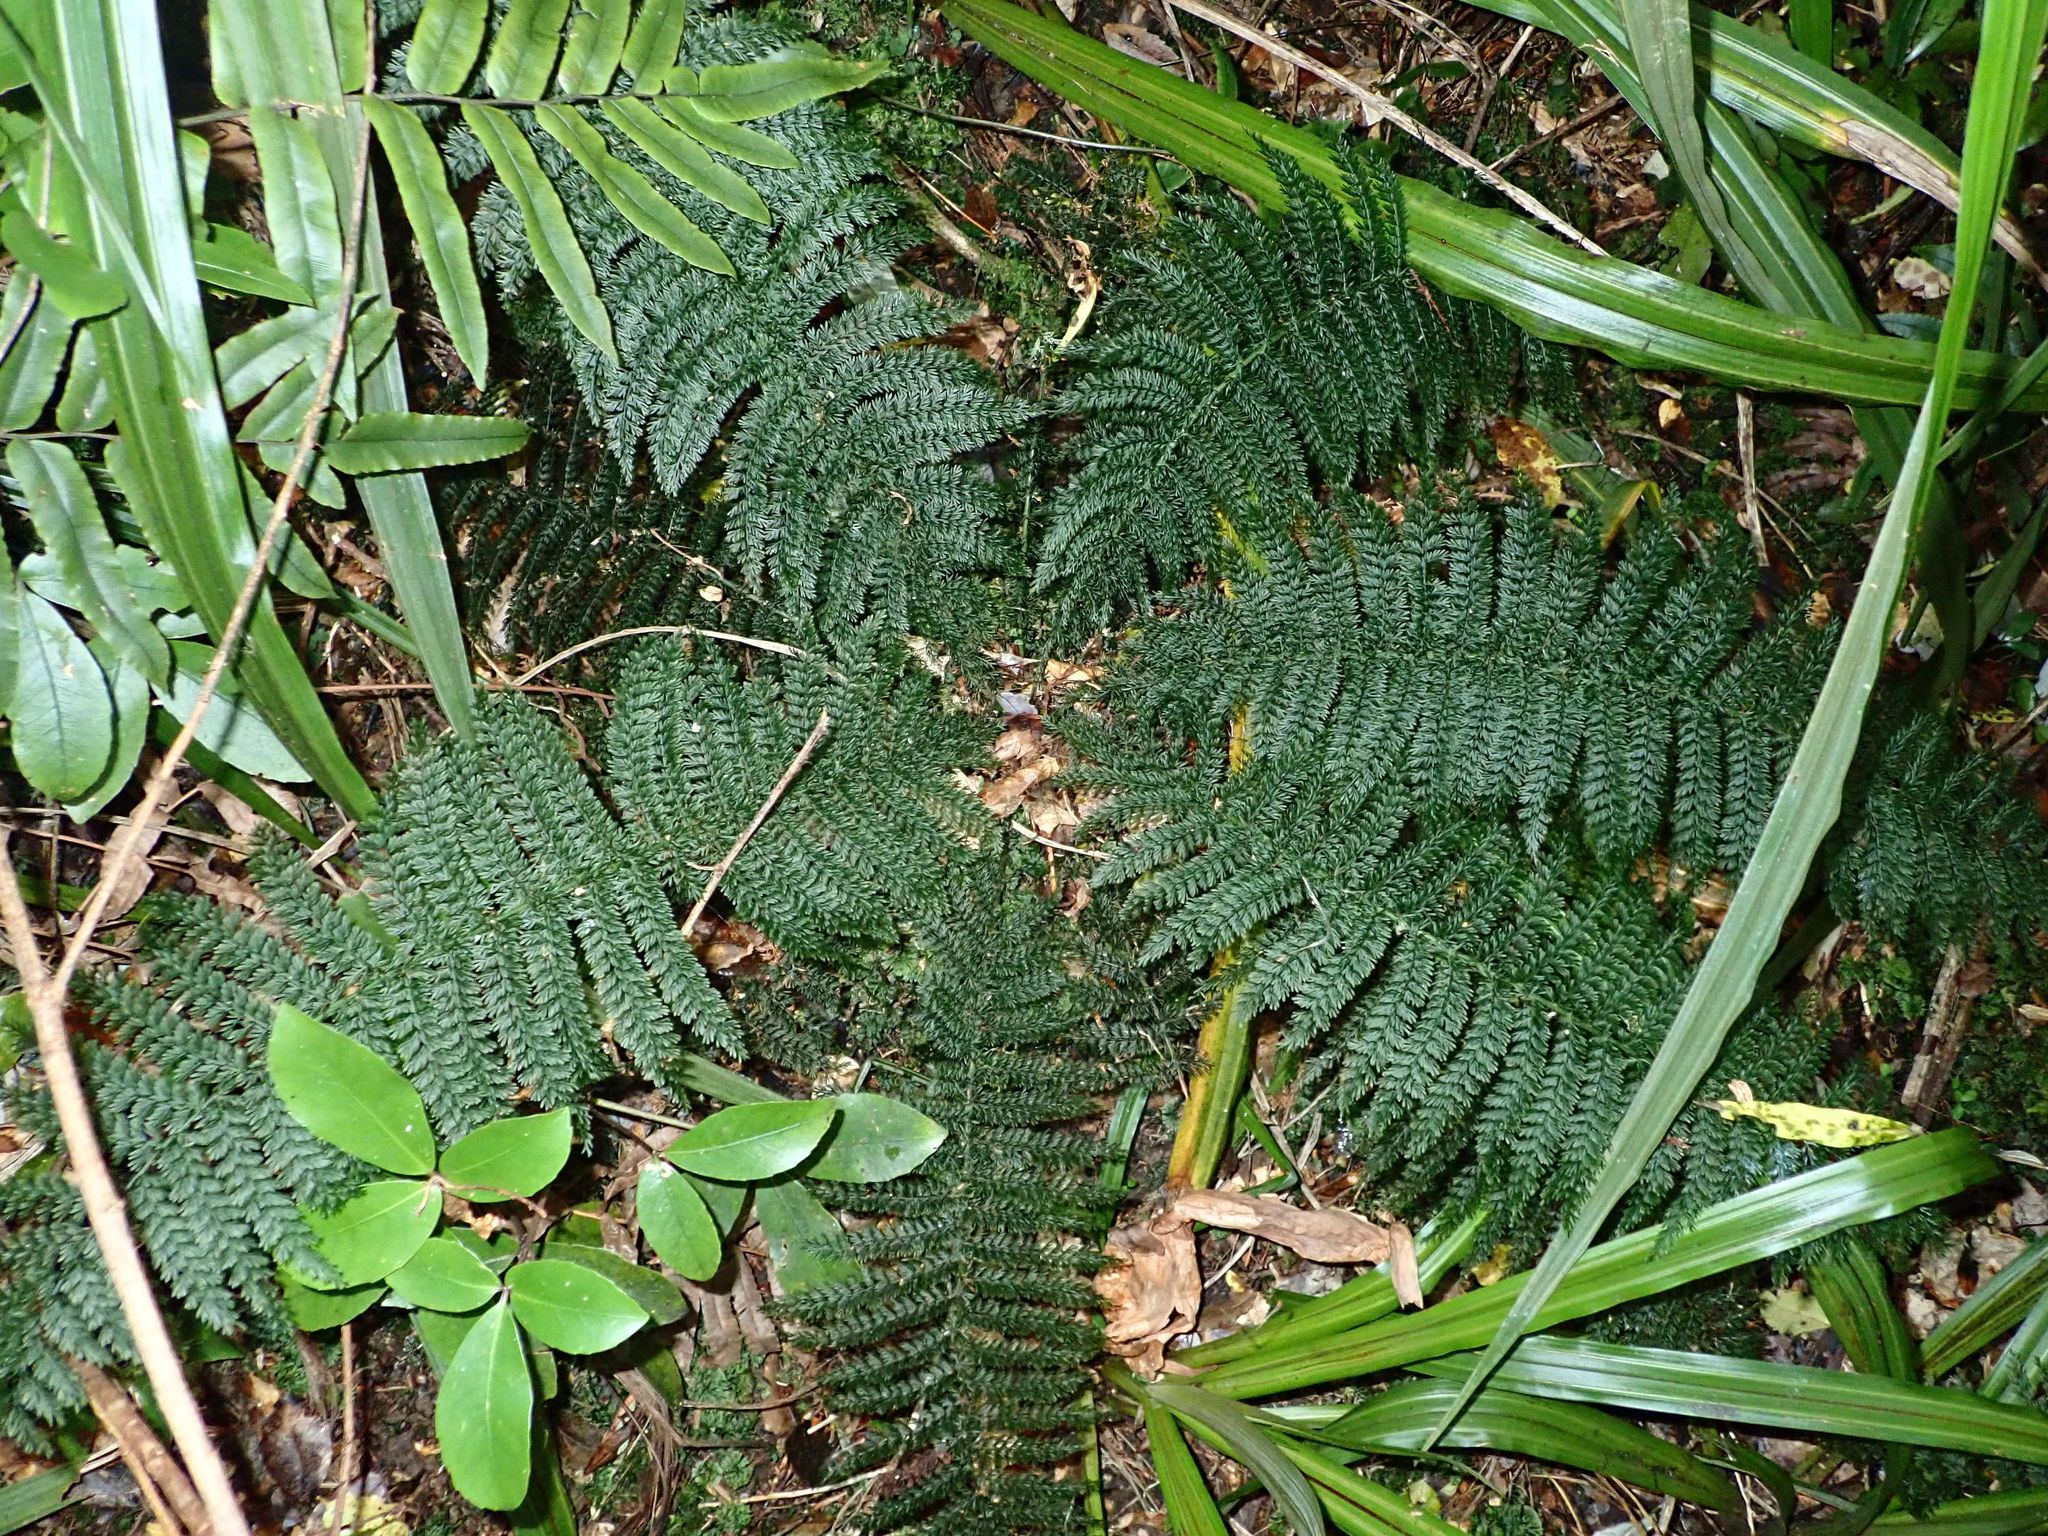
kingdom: Plantae
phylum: Tracheophyta
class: Polypodiopsida
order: Osmundales
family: Osmundaceae
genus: Leptopteris
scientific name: Leptopteris superba
